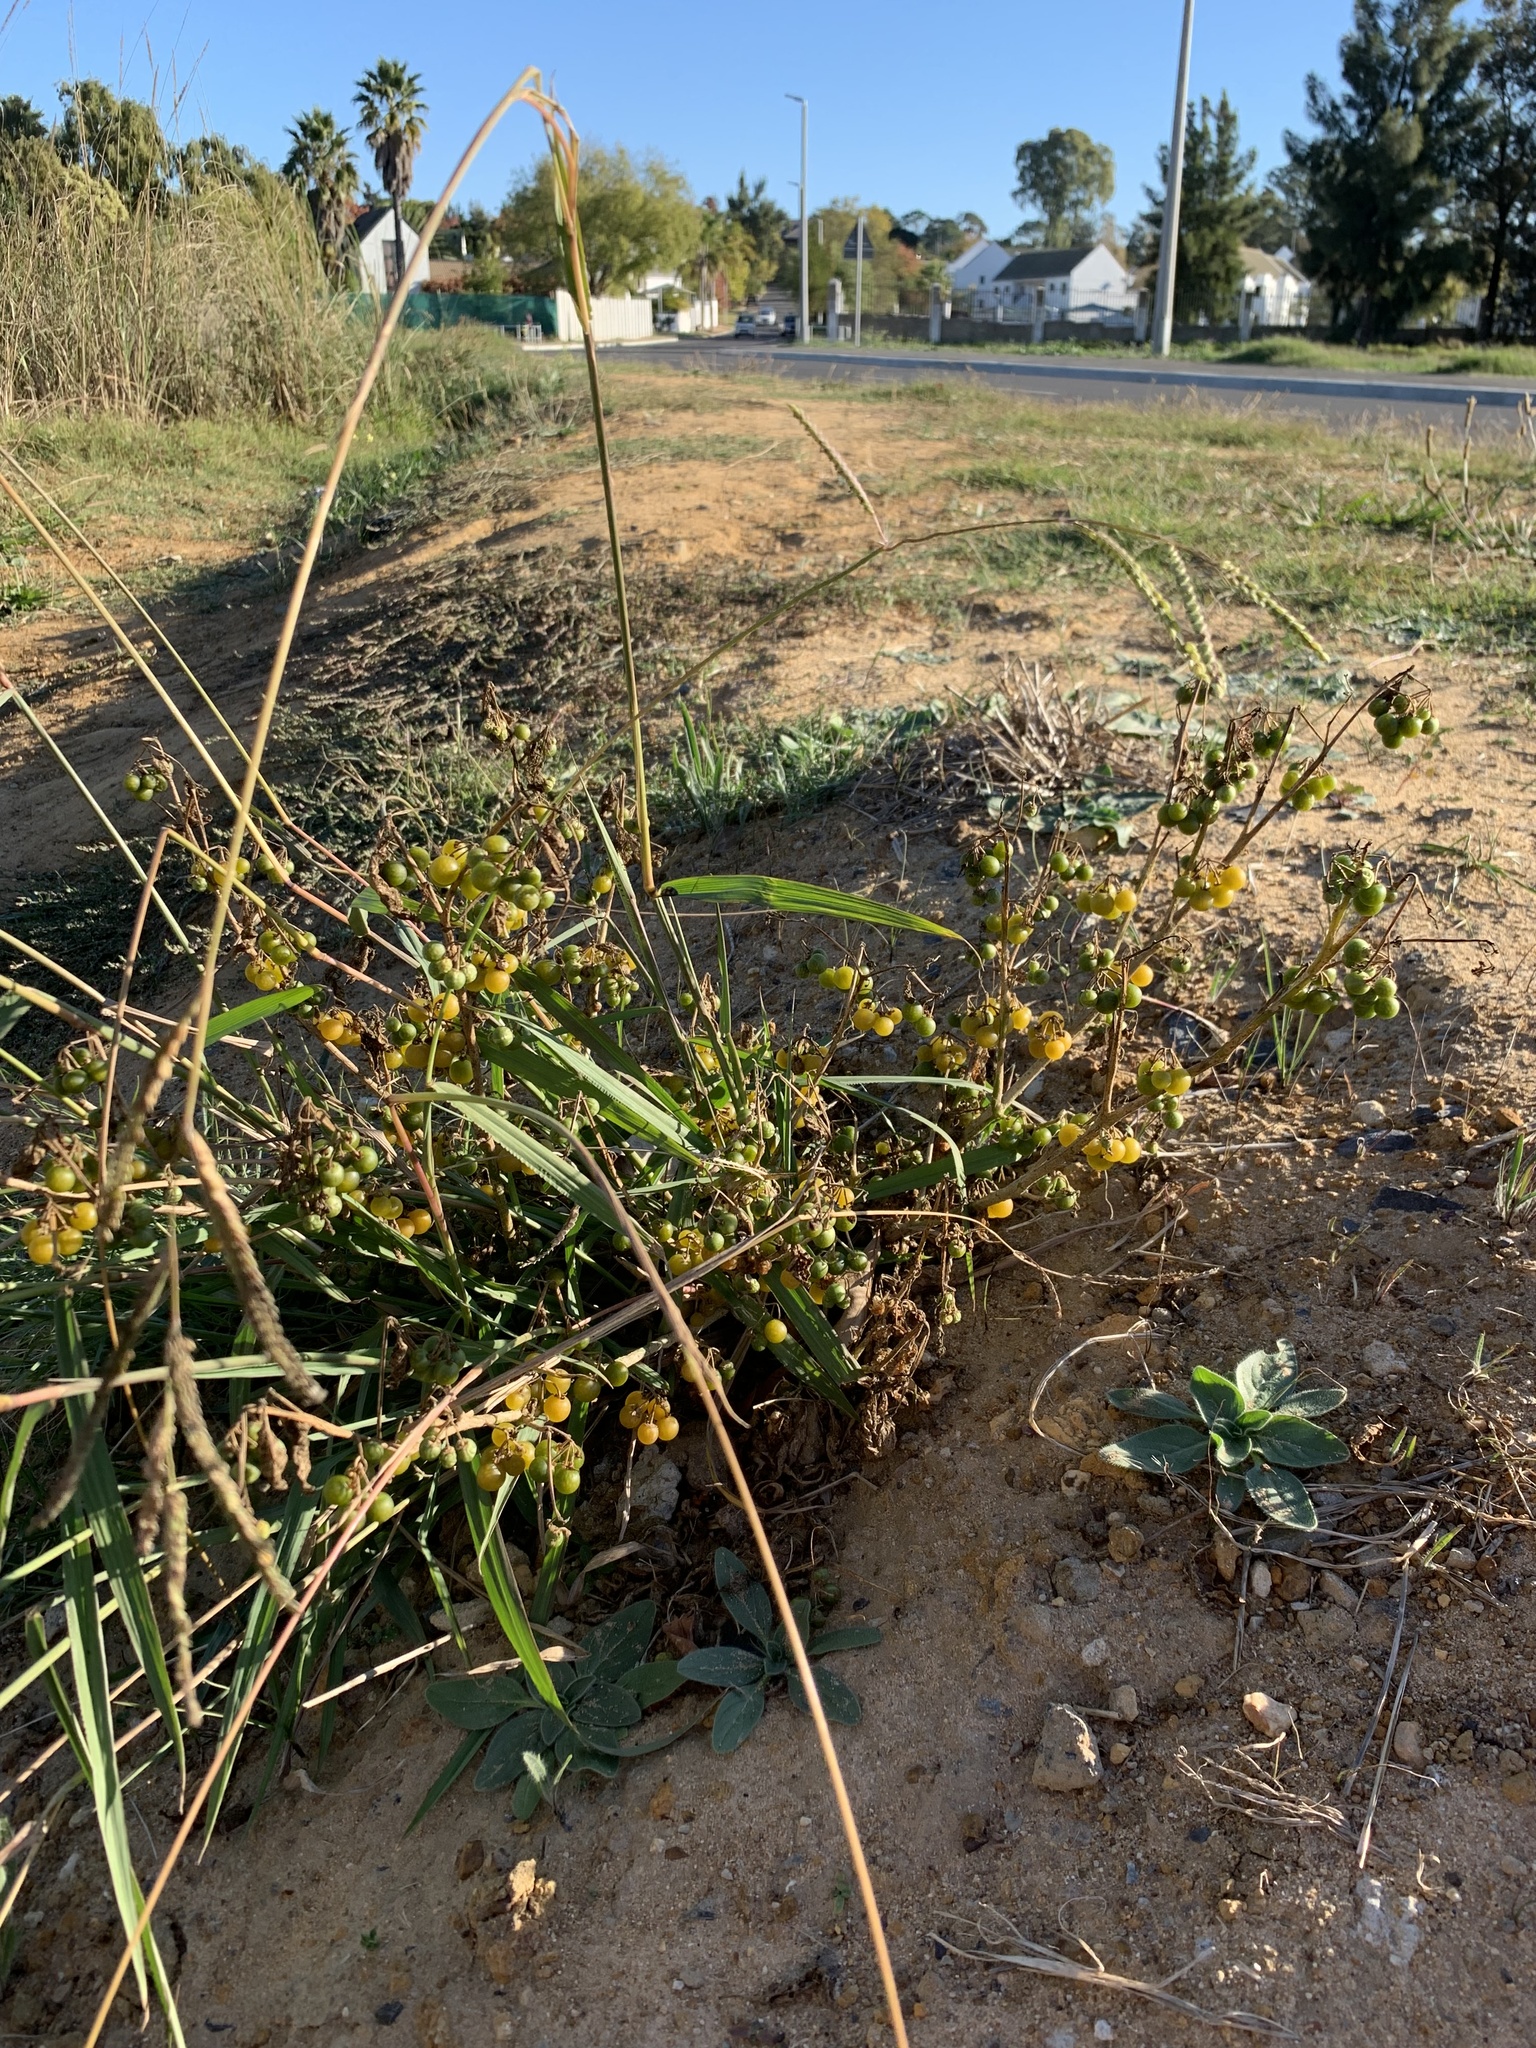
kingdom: Plantae
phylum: Tracheophyta
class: Magnoliopsida
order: Solanales
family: Solanaceae
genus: Solanum
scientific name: Solanum villosum
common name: Red nightshade
